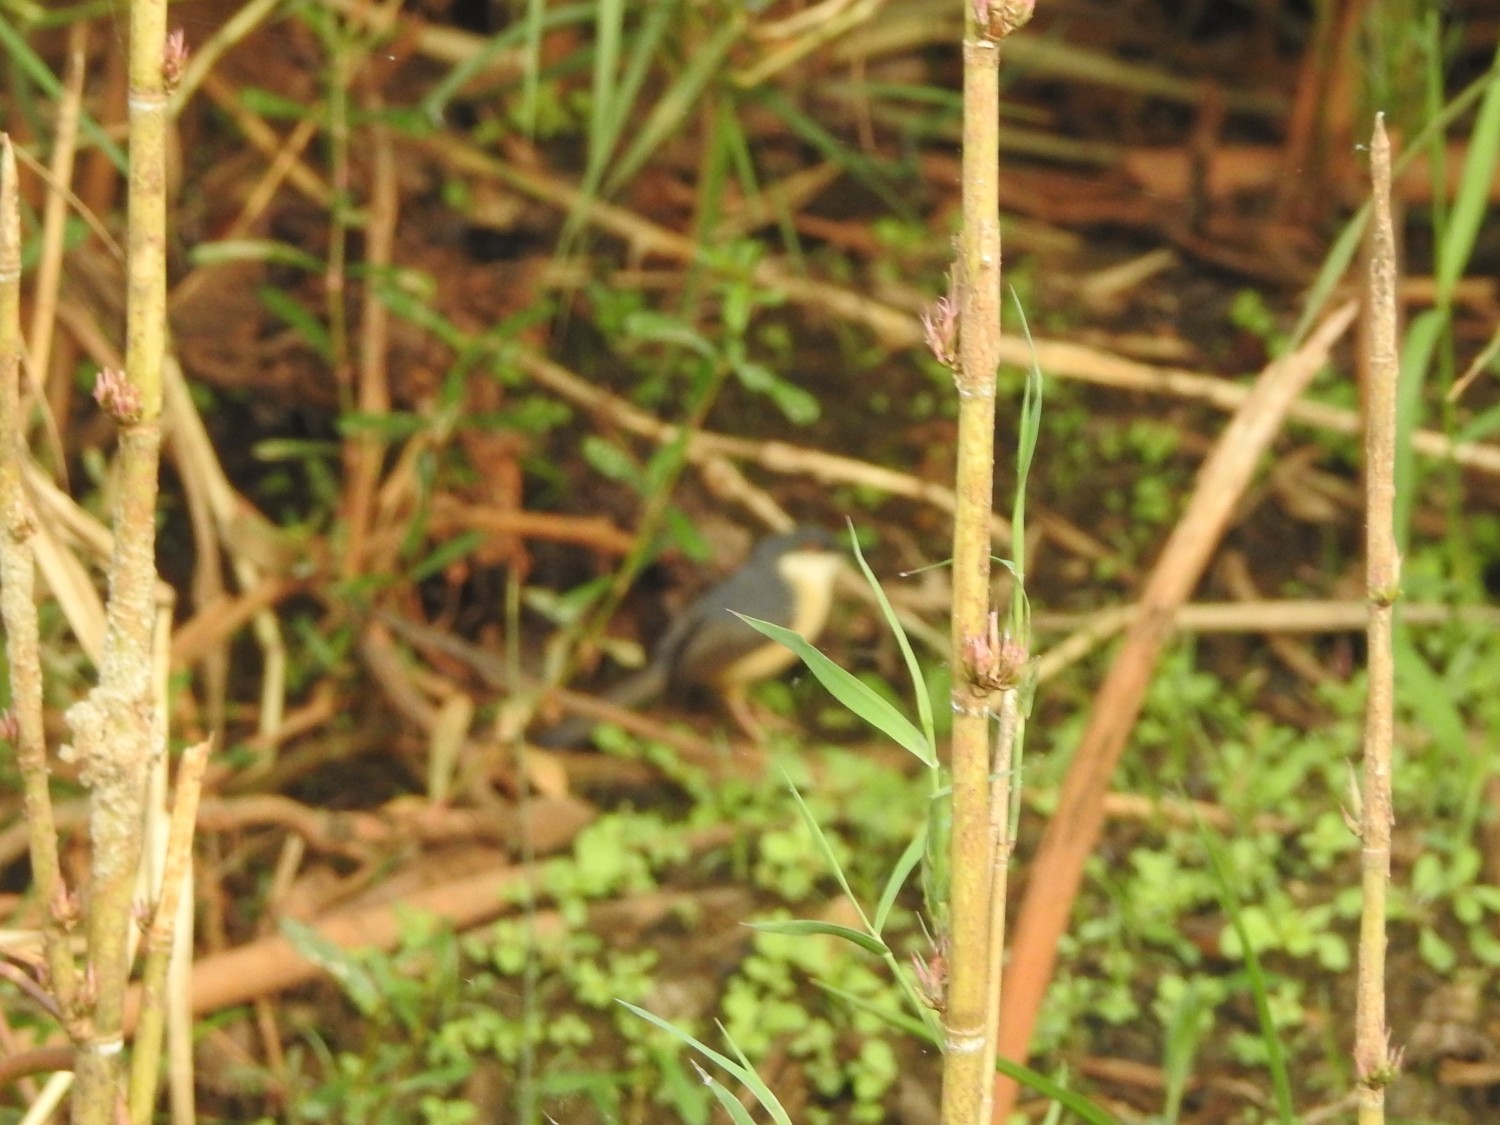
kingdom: Animalia
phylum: Chordata
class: Aves
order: Passeriformes
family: Cisticolidae
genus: Prinia
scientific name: Prinia socialis
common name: Ashy prinia
